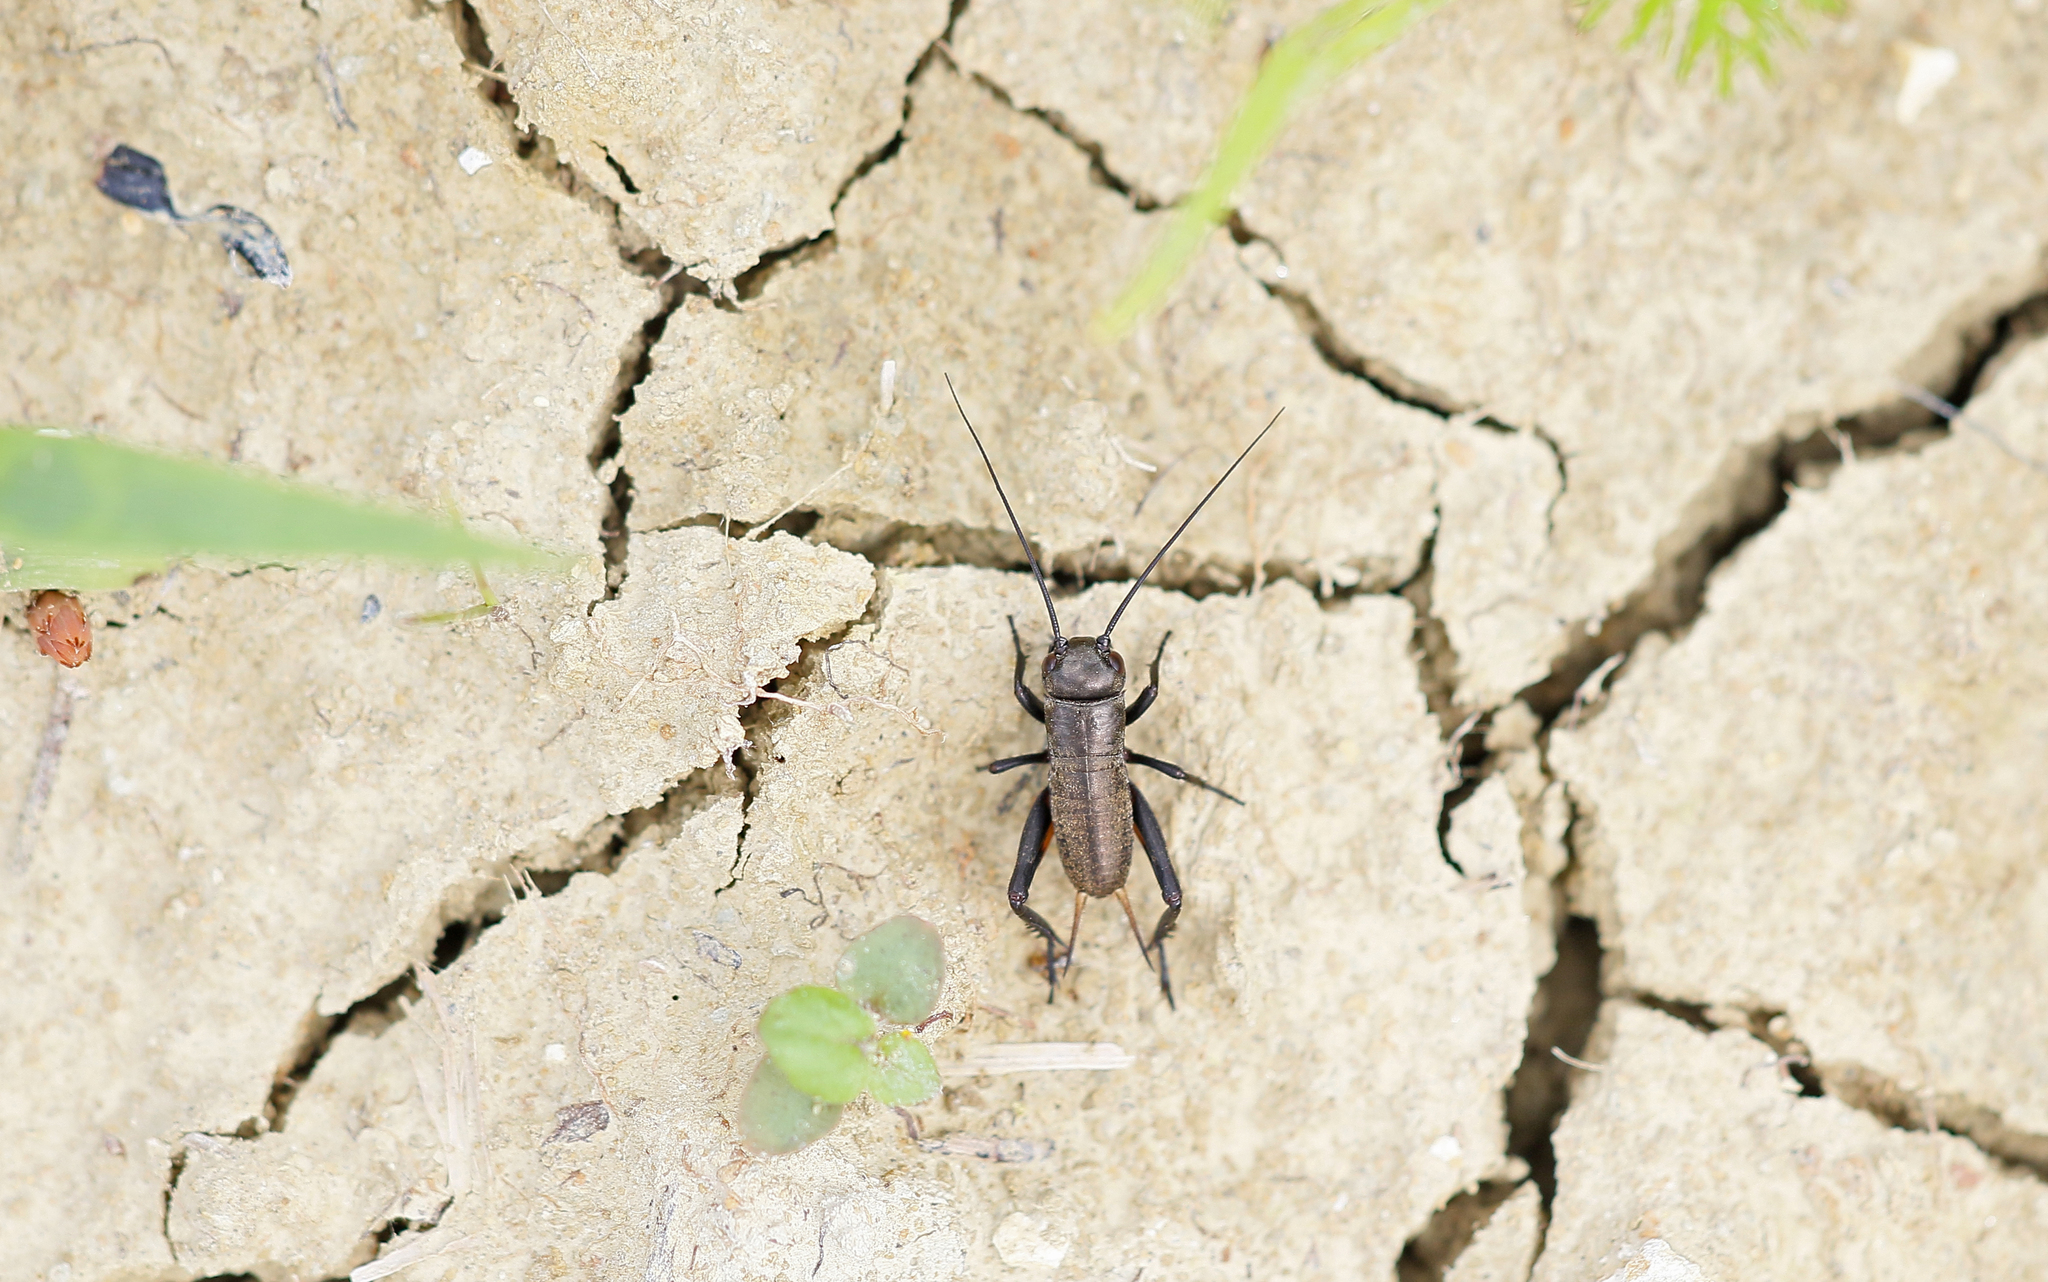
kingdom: Animalia
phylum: Arthropoda
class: Insecta
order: Orthoptera
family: Gryllidae
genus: Gryllus
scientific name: Gryllus campestris
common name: Field cricket
